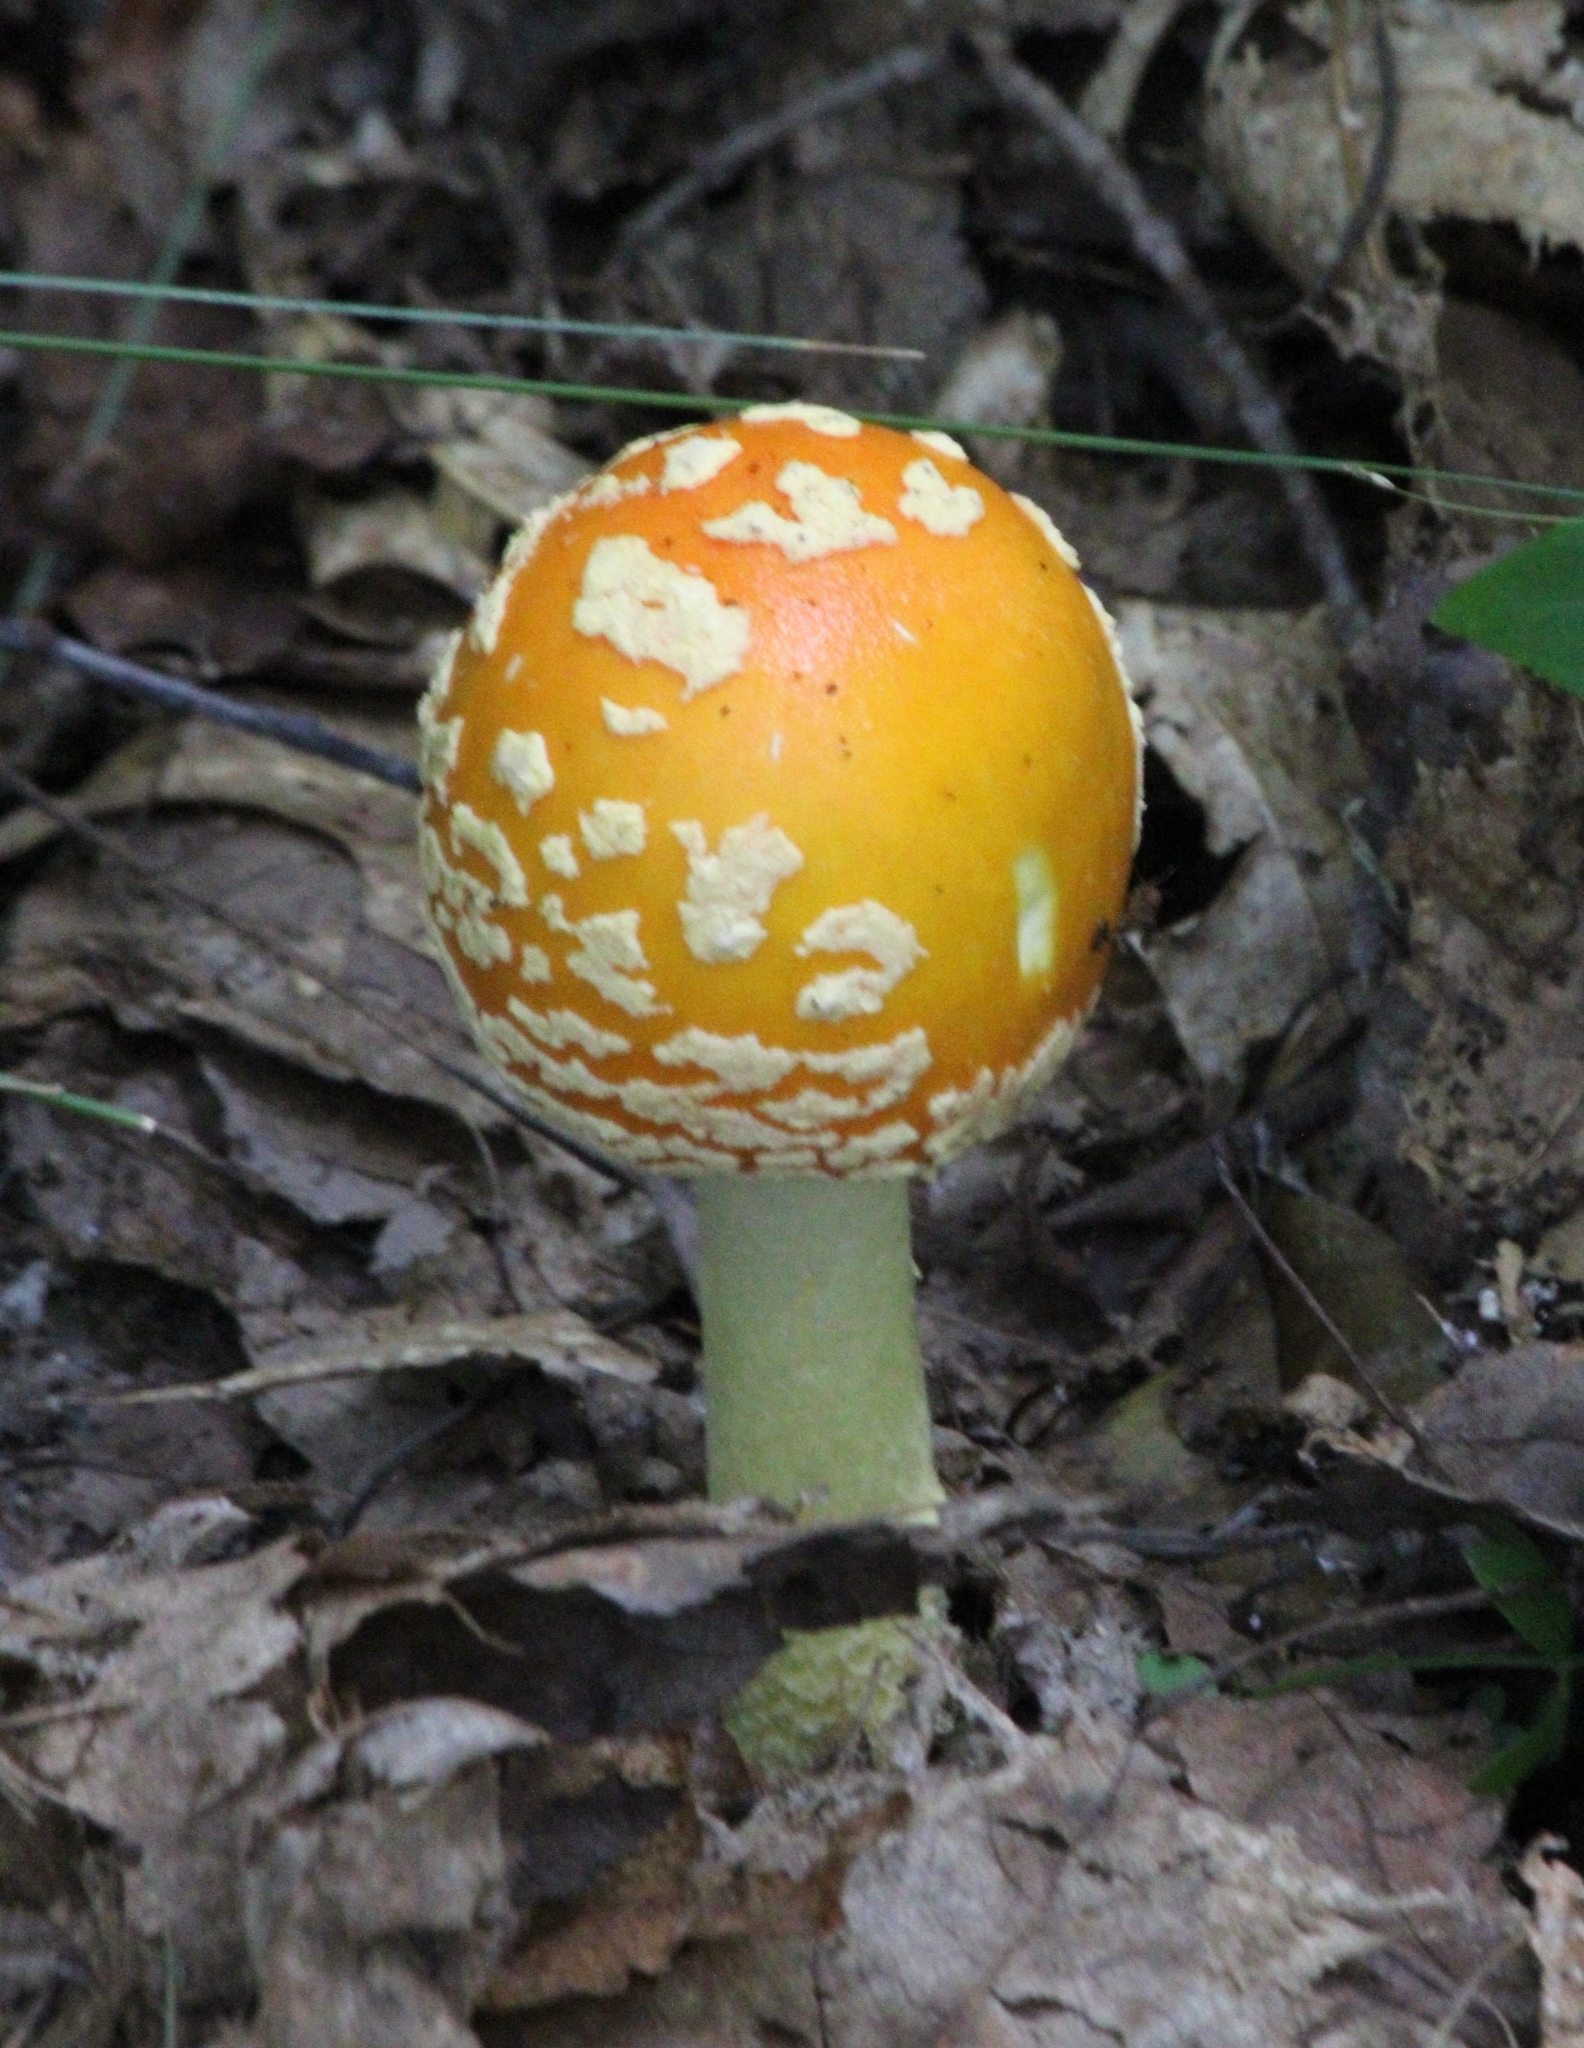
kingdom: Fungi
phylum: Basidiomycota
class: Agaricomycetes
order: Agaricales
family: Amanitaceae
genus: Amanita
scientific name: Amanita muscaria
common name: Fly agaric
